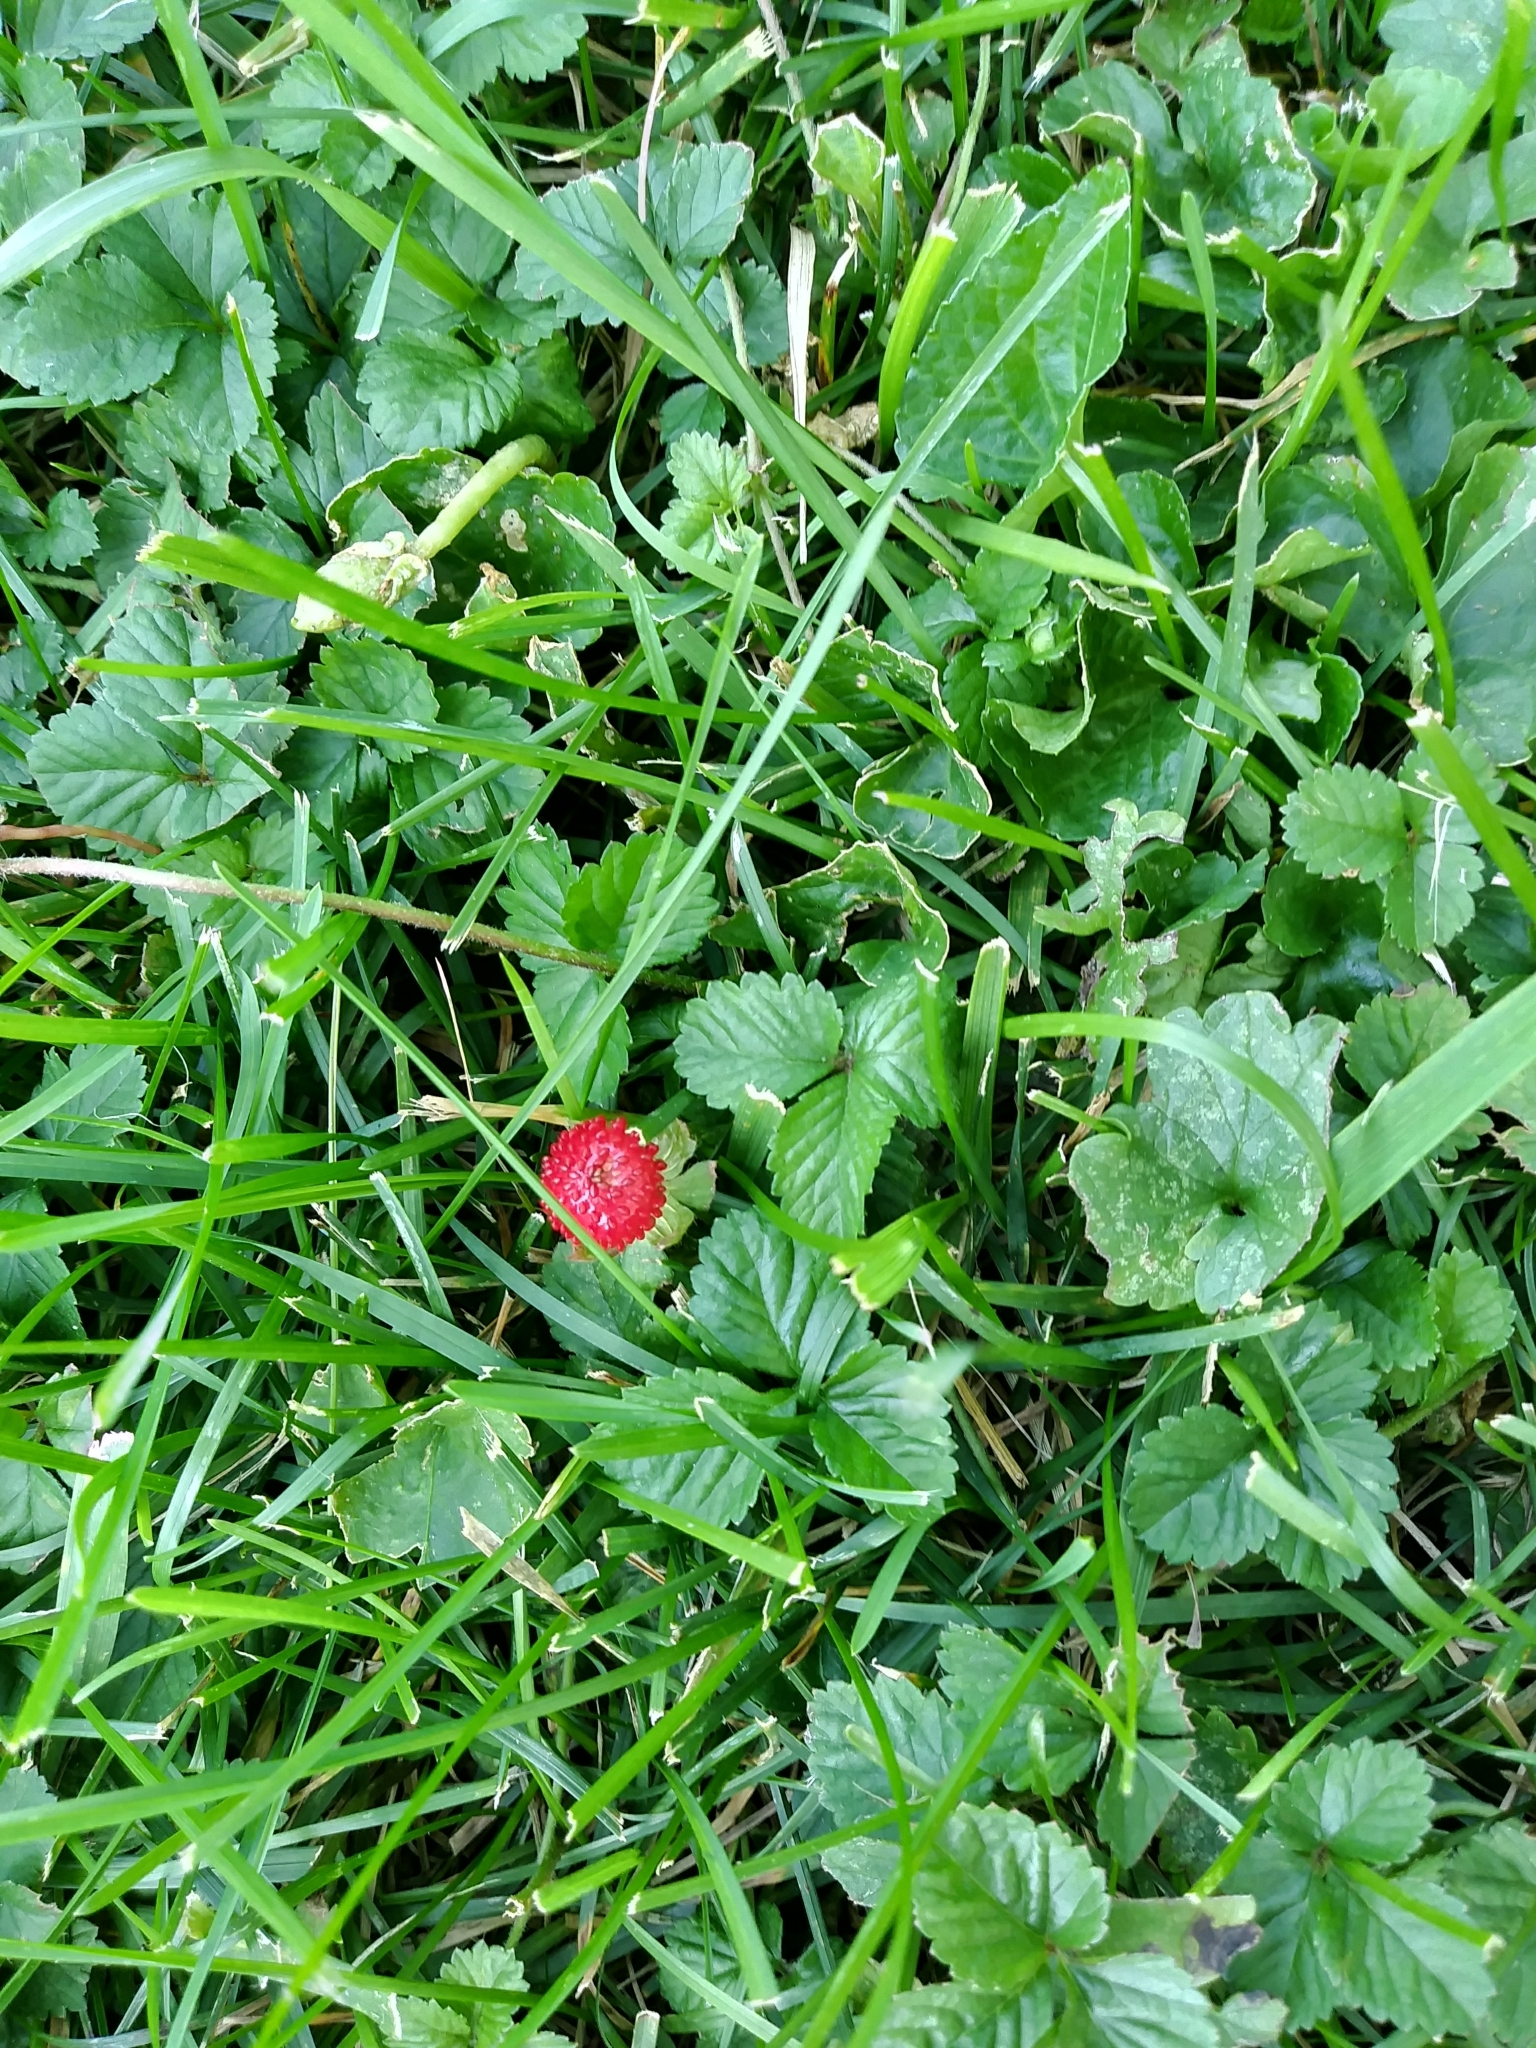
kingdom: Plantae
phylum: Tracheophyta
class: Magnoliopsida
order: Rosales
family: Rosaceae
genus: Potentilla
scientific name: Potentilla indica
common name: Yellow-flowered strawberry
